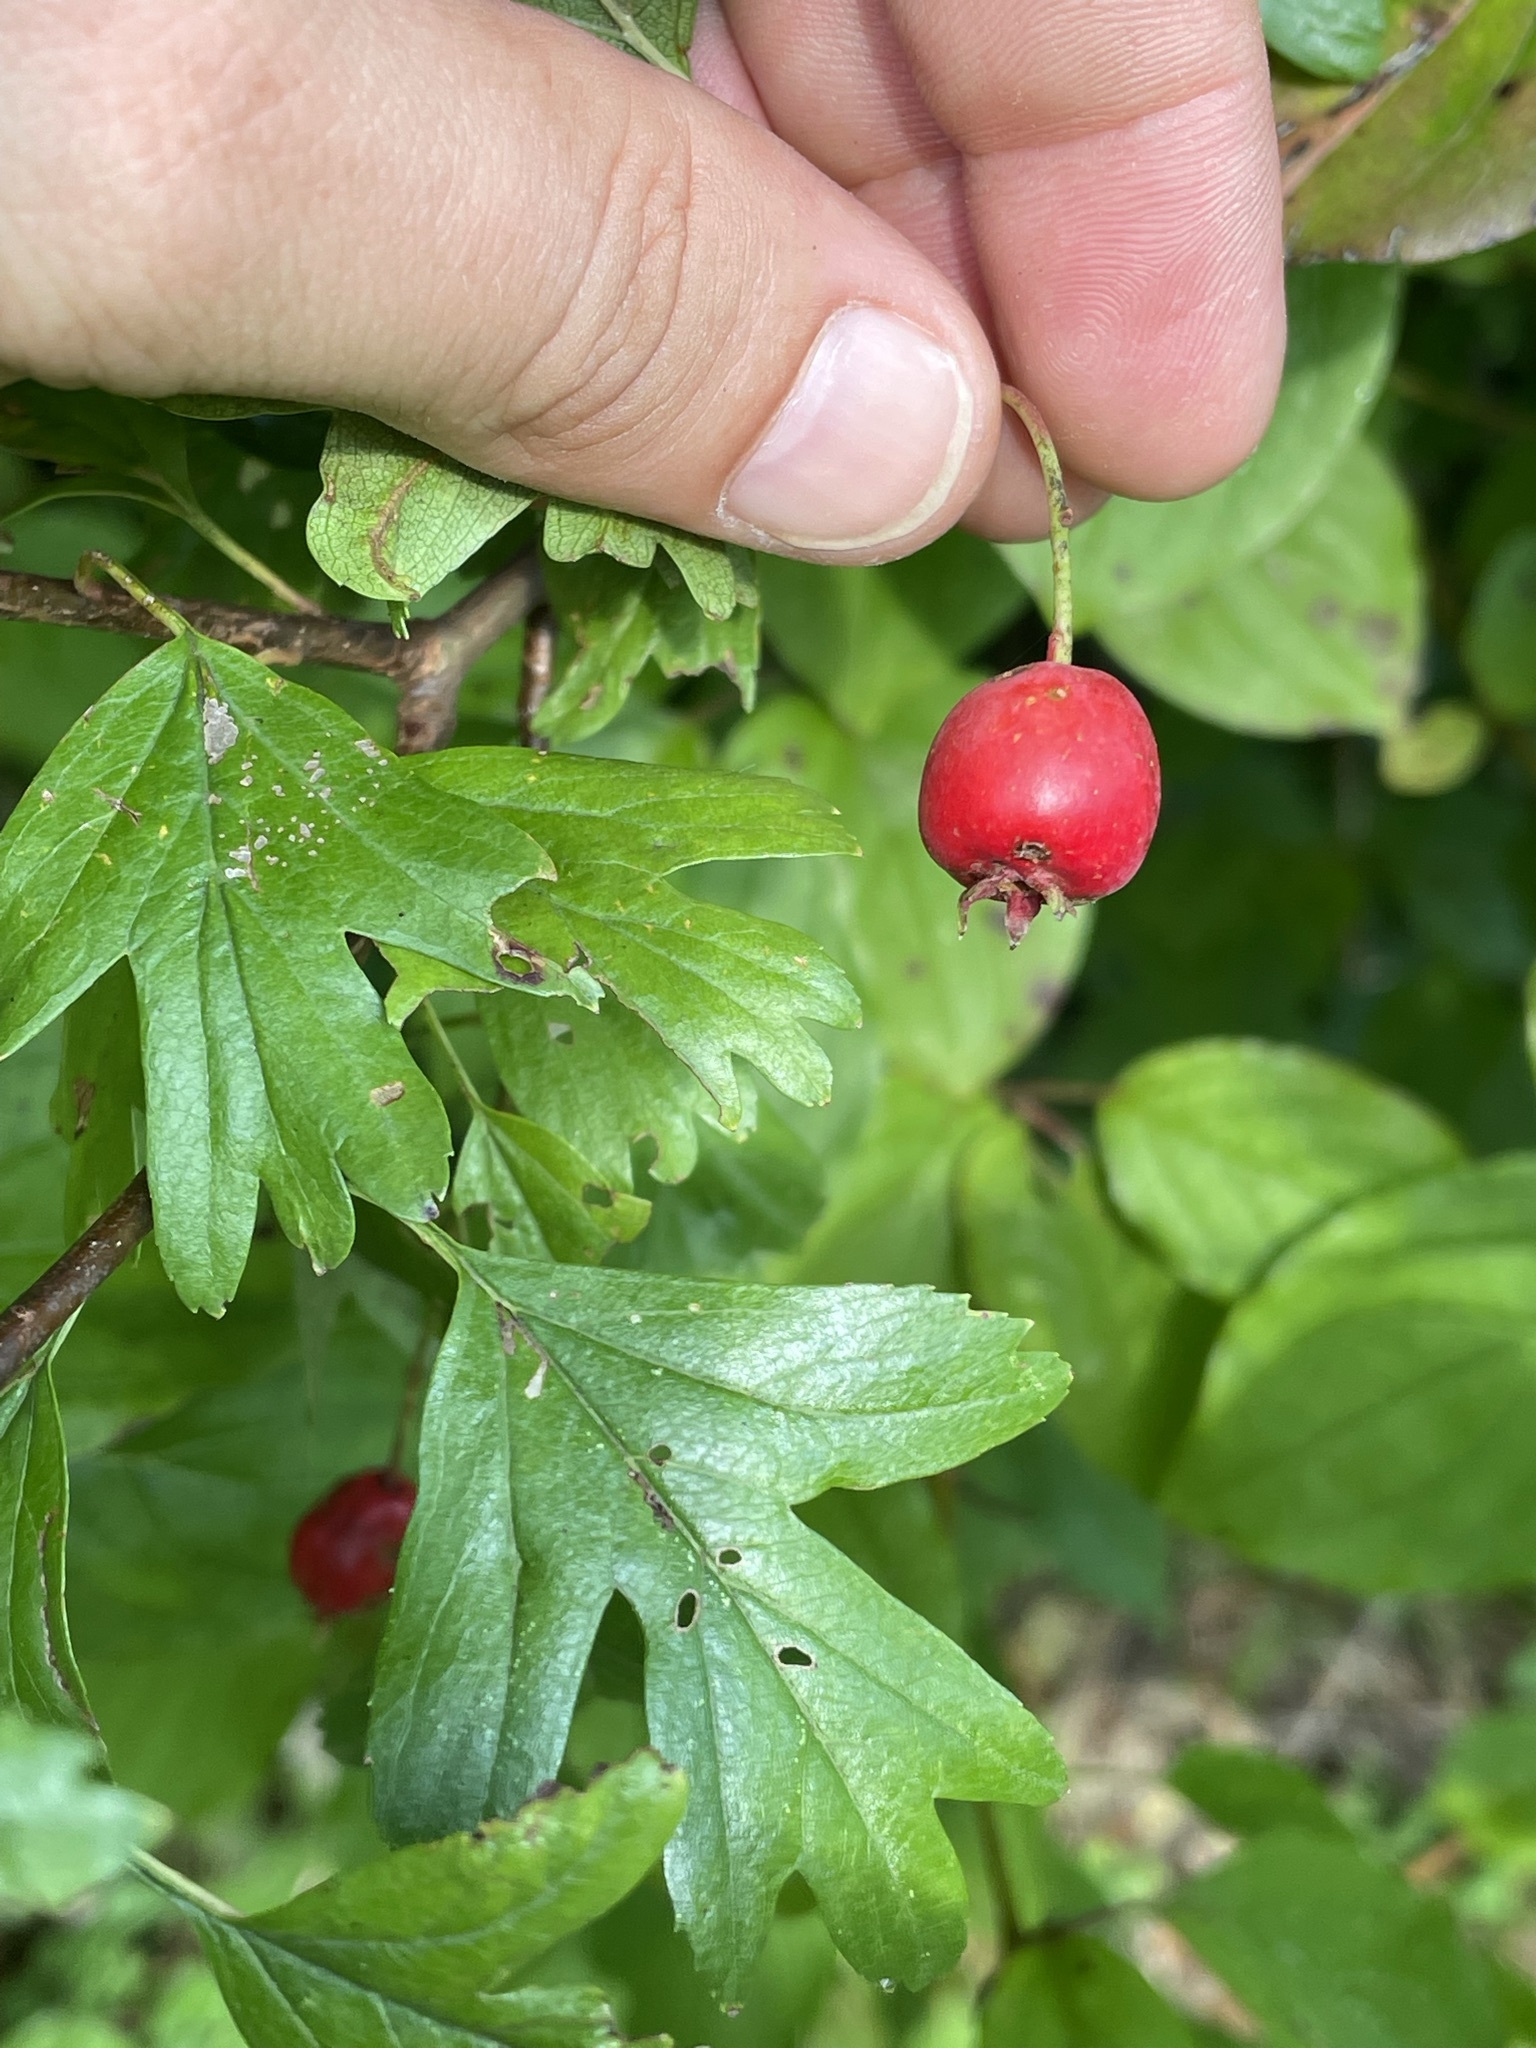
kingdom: Plantae
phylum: Tracheophyta
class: Magnoliopsida
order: Rosales
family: Rosaceae
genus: Crataegus
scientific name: Crataegus monogyna
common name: Hawthorn
